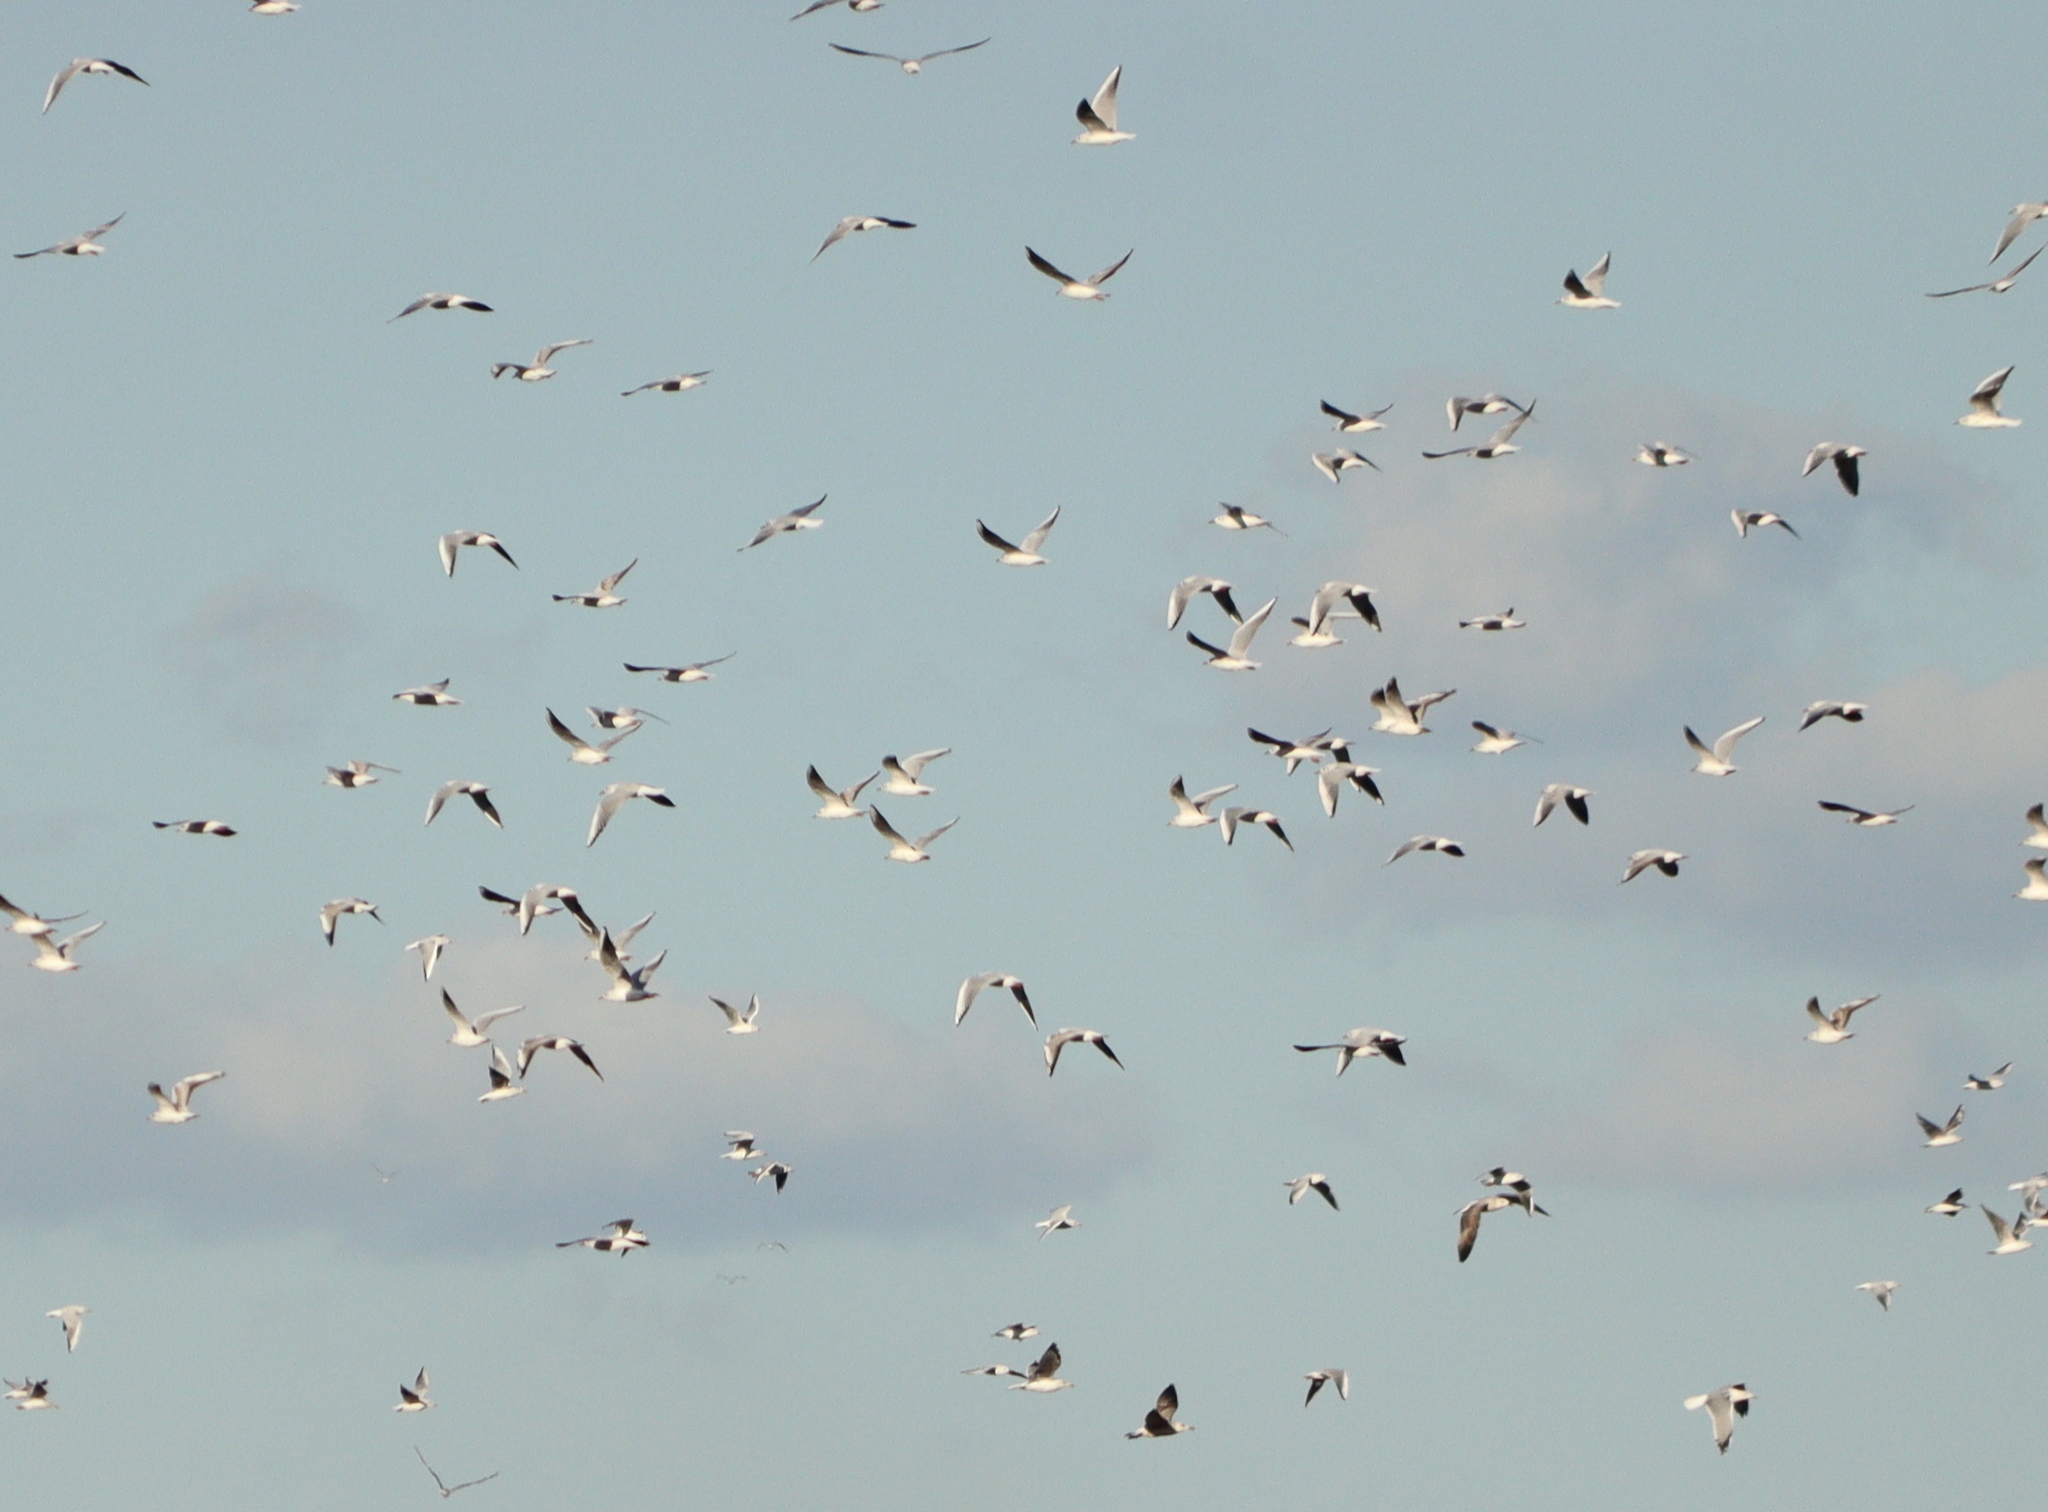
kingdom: Animalia
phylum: Chordata
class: Aves
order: Charadriiformes
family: Laridae
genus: Chroicocephalus
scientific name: Chroicocephalus ridibundus
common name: Black-headed gull
